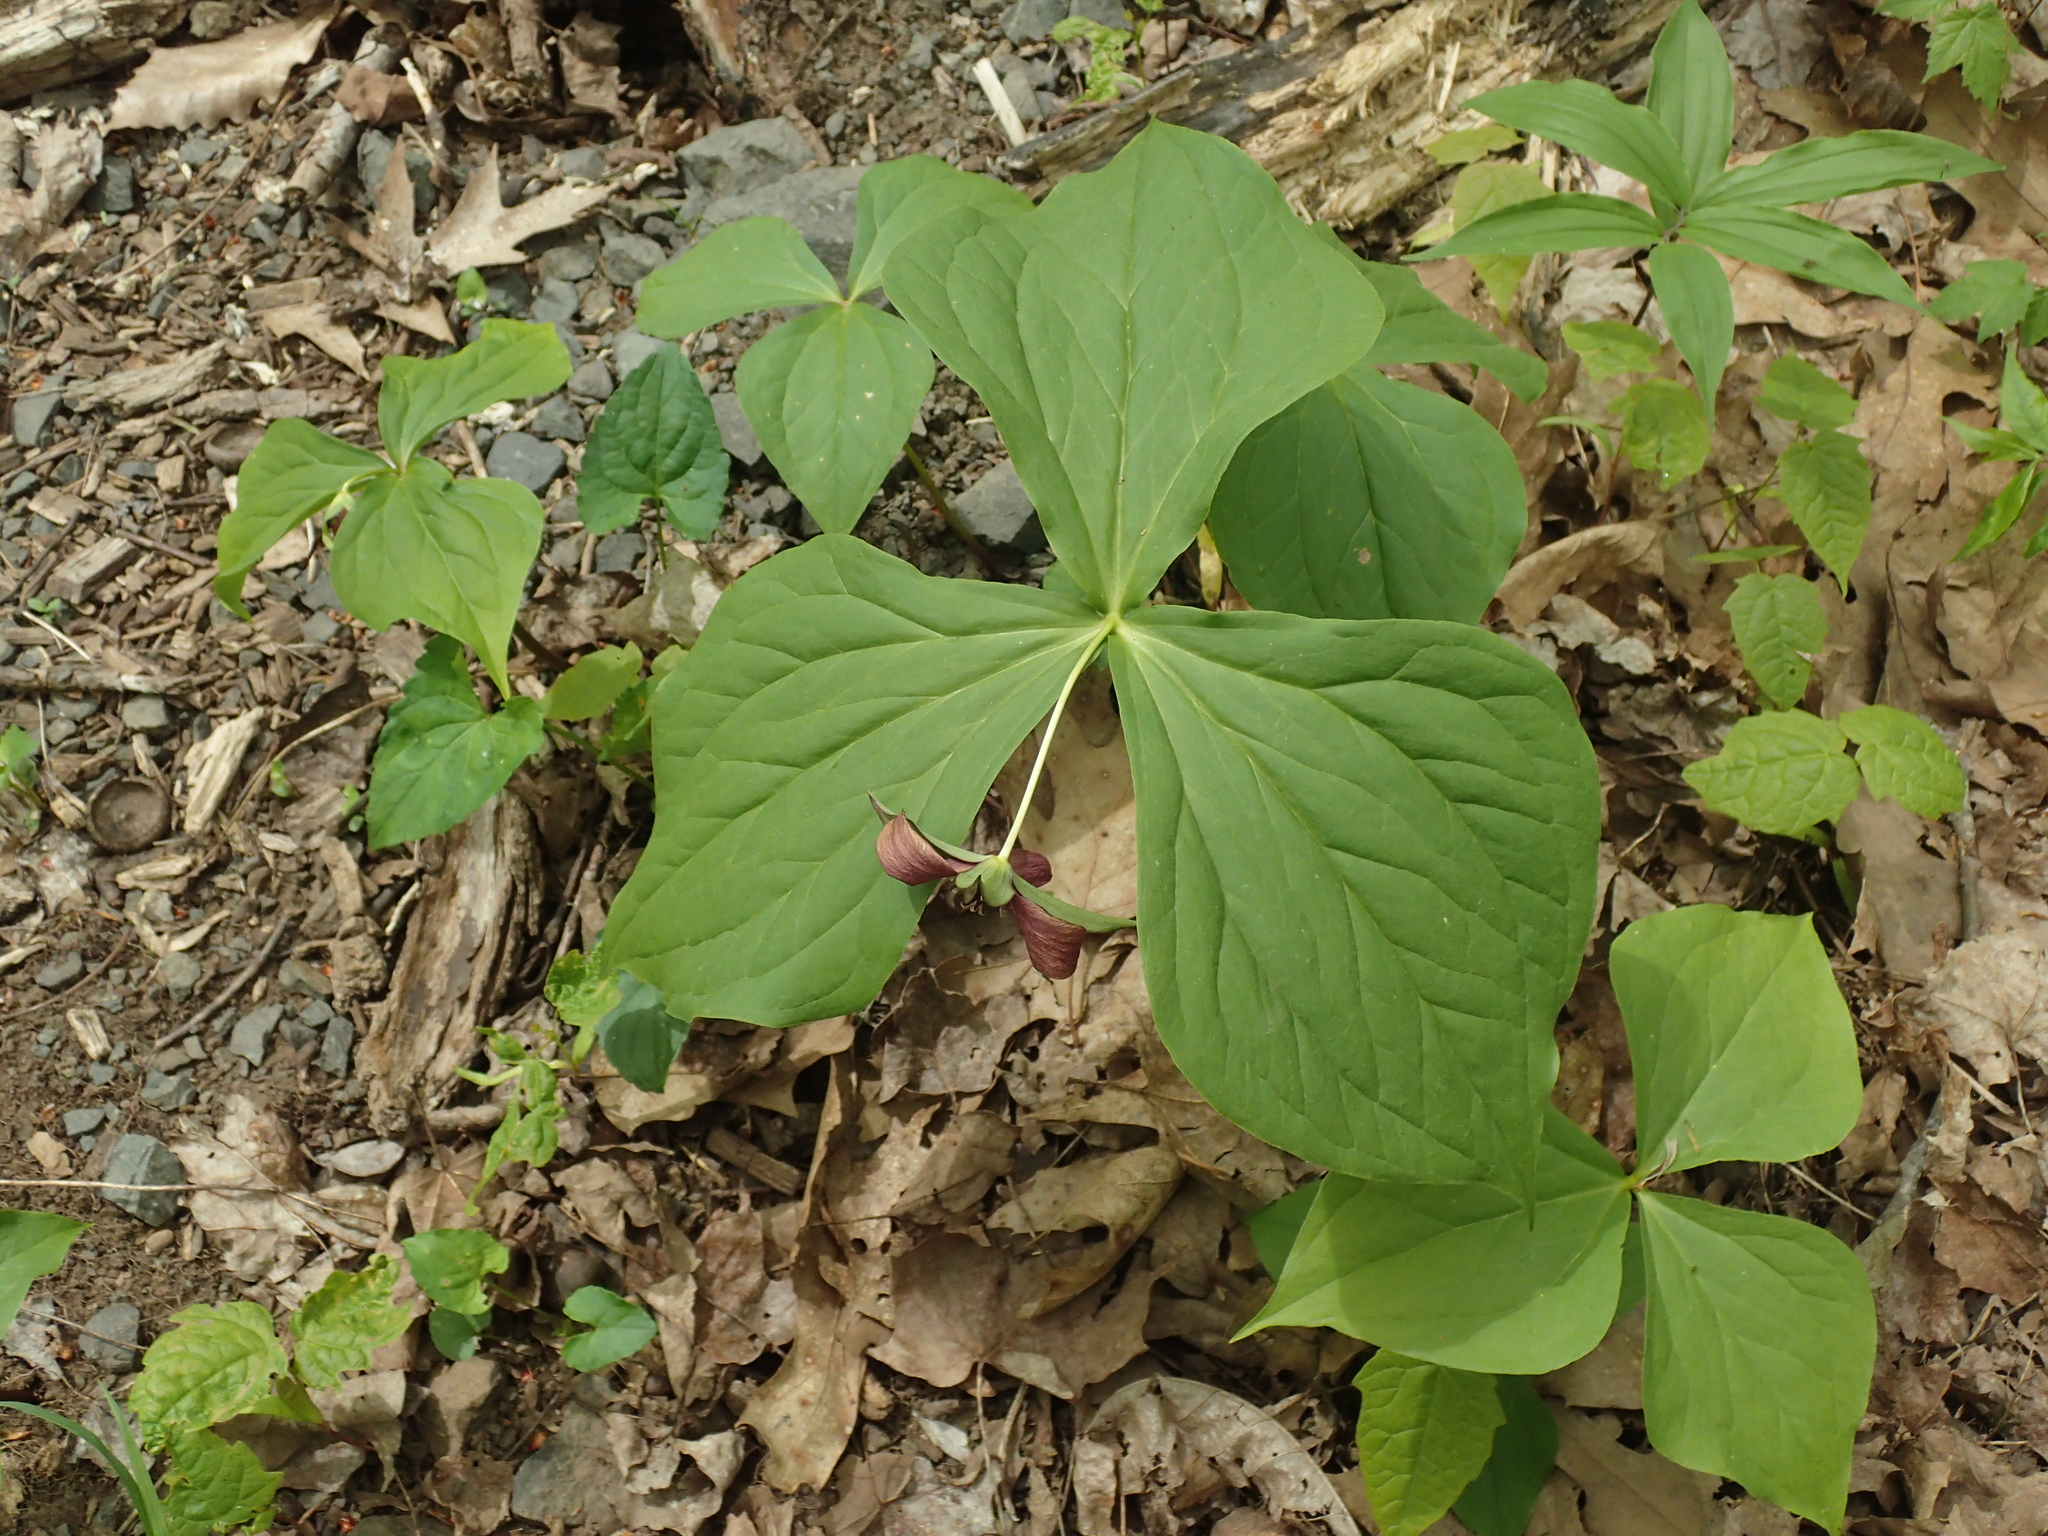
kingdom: Plantae
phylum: Tracheophyta
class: Liliopsida
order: Liliales
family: Melanthiaceae
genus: Trillium
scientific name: Trillium erectum
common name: Purple trillium
